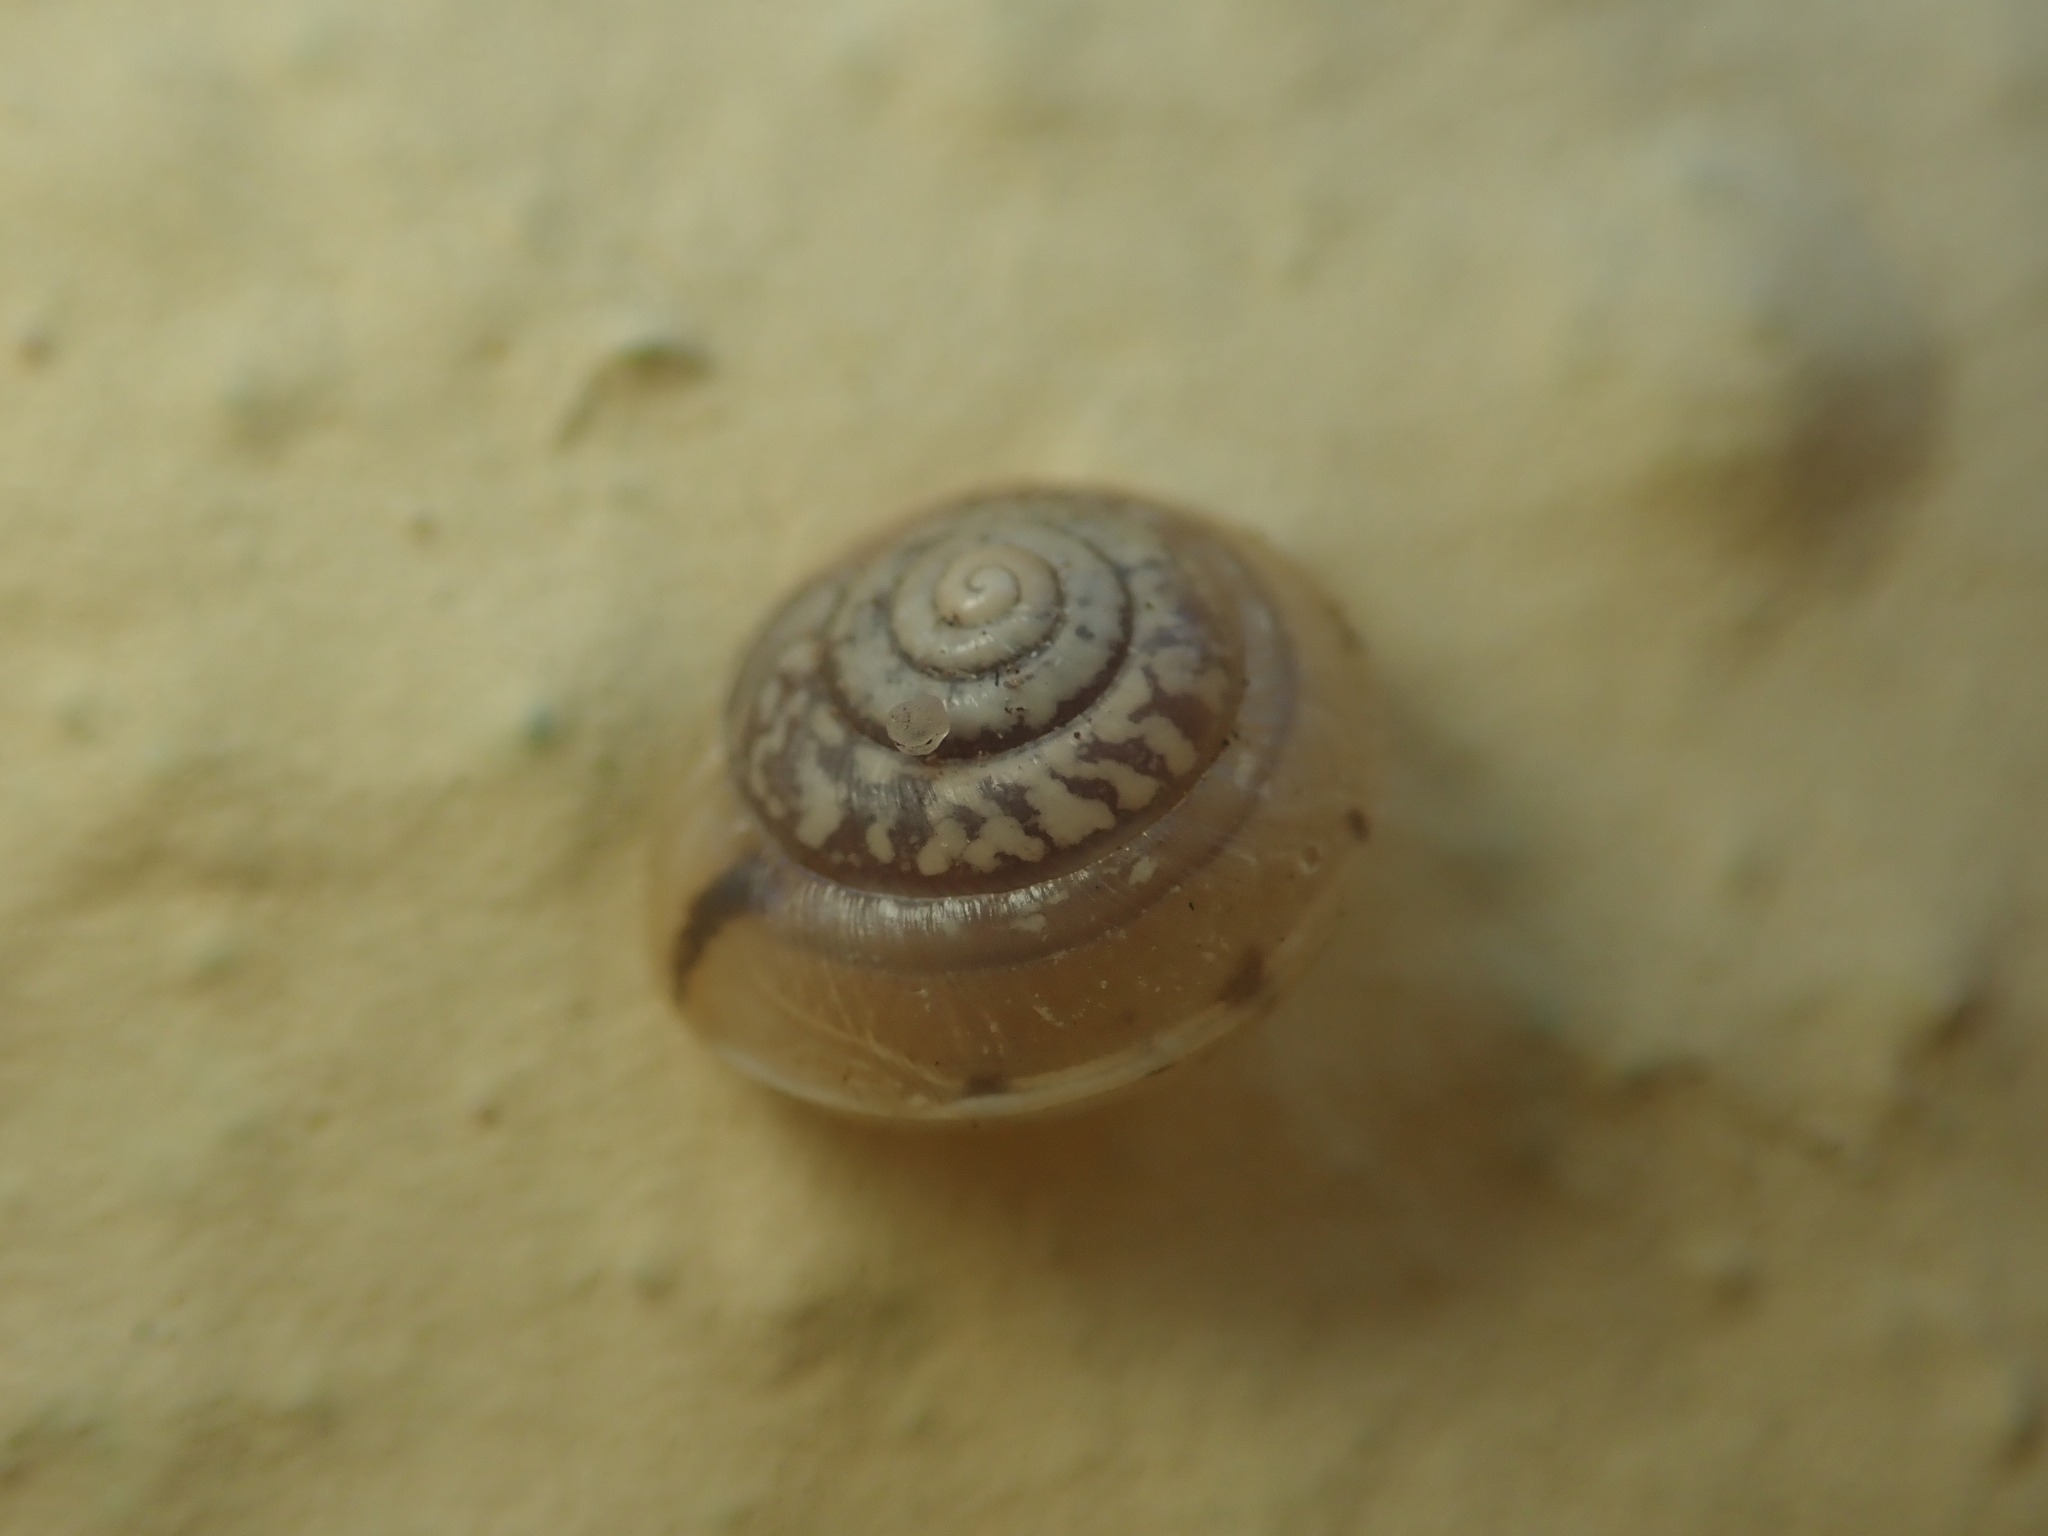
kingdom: Animalia
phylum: Mollusca
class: Gastropoda
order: Stylommatophora
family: Hygromiidae
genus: Hygromia
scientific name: Hygromia cinctella
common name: Girdled snail
